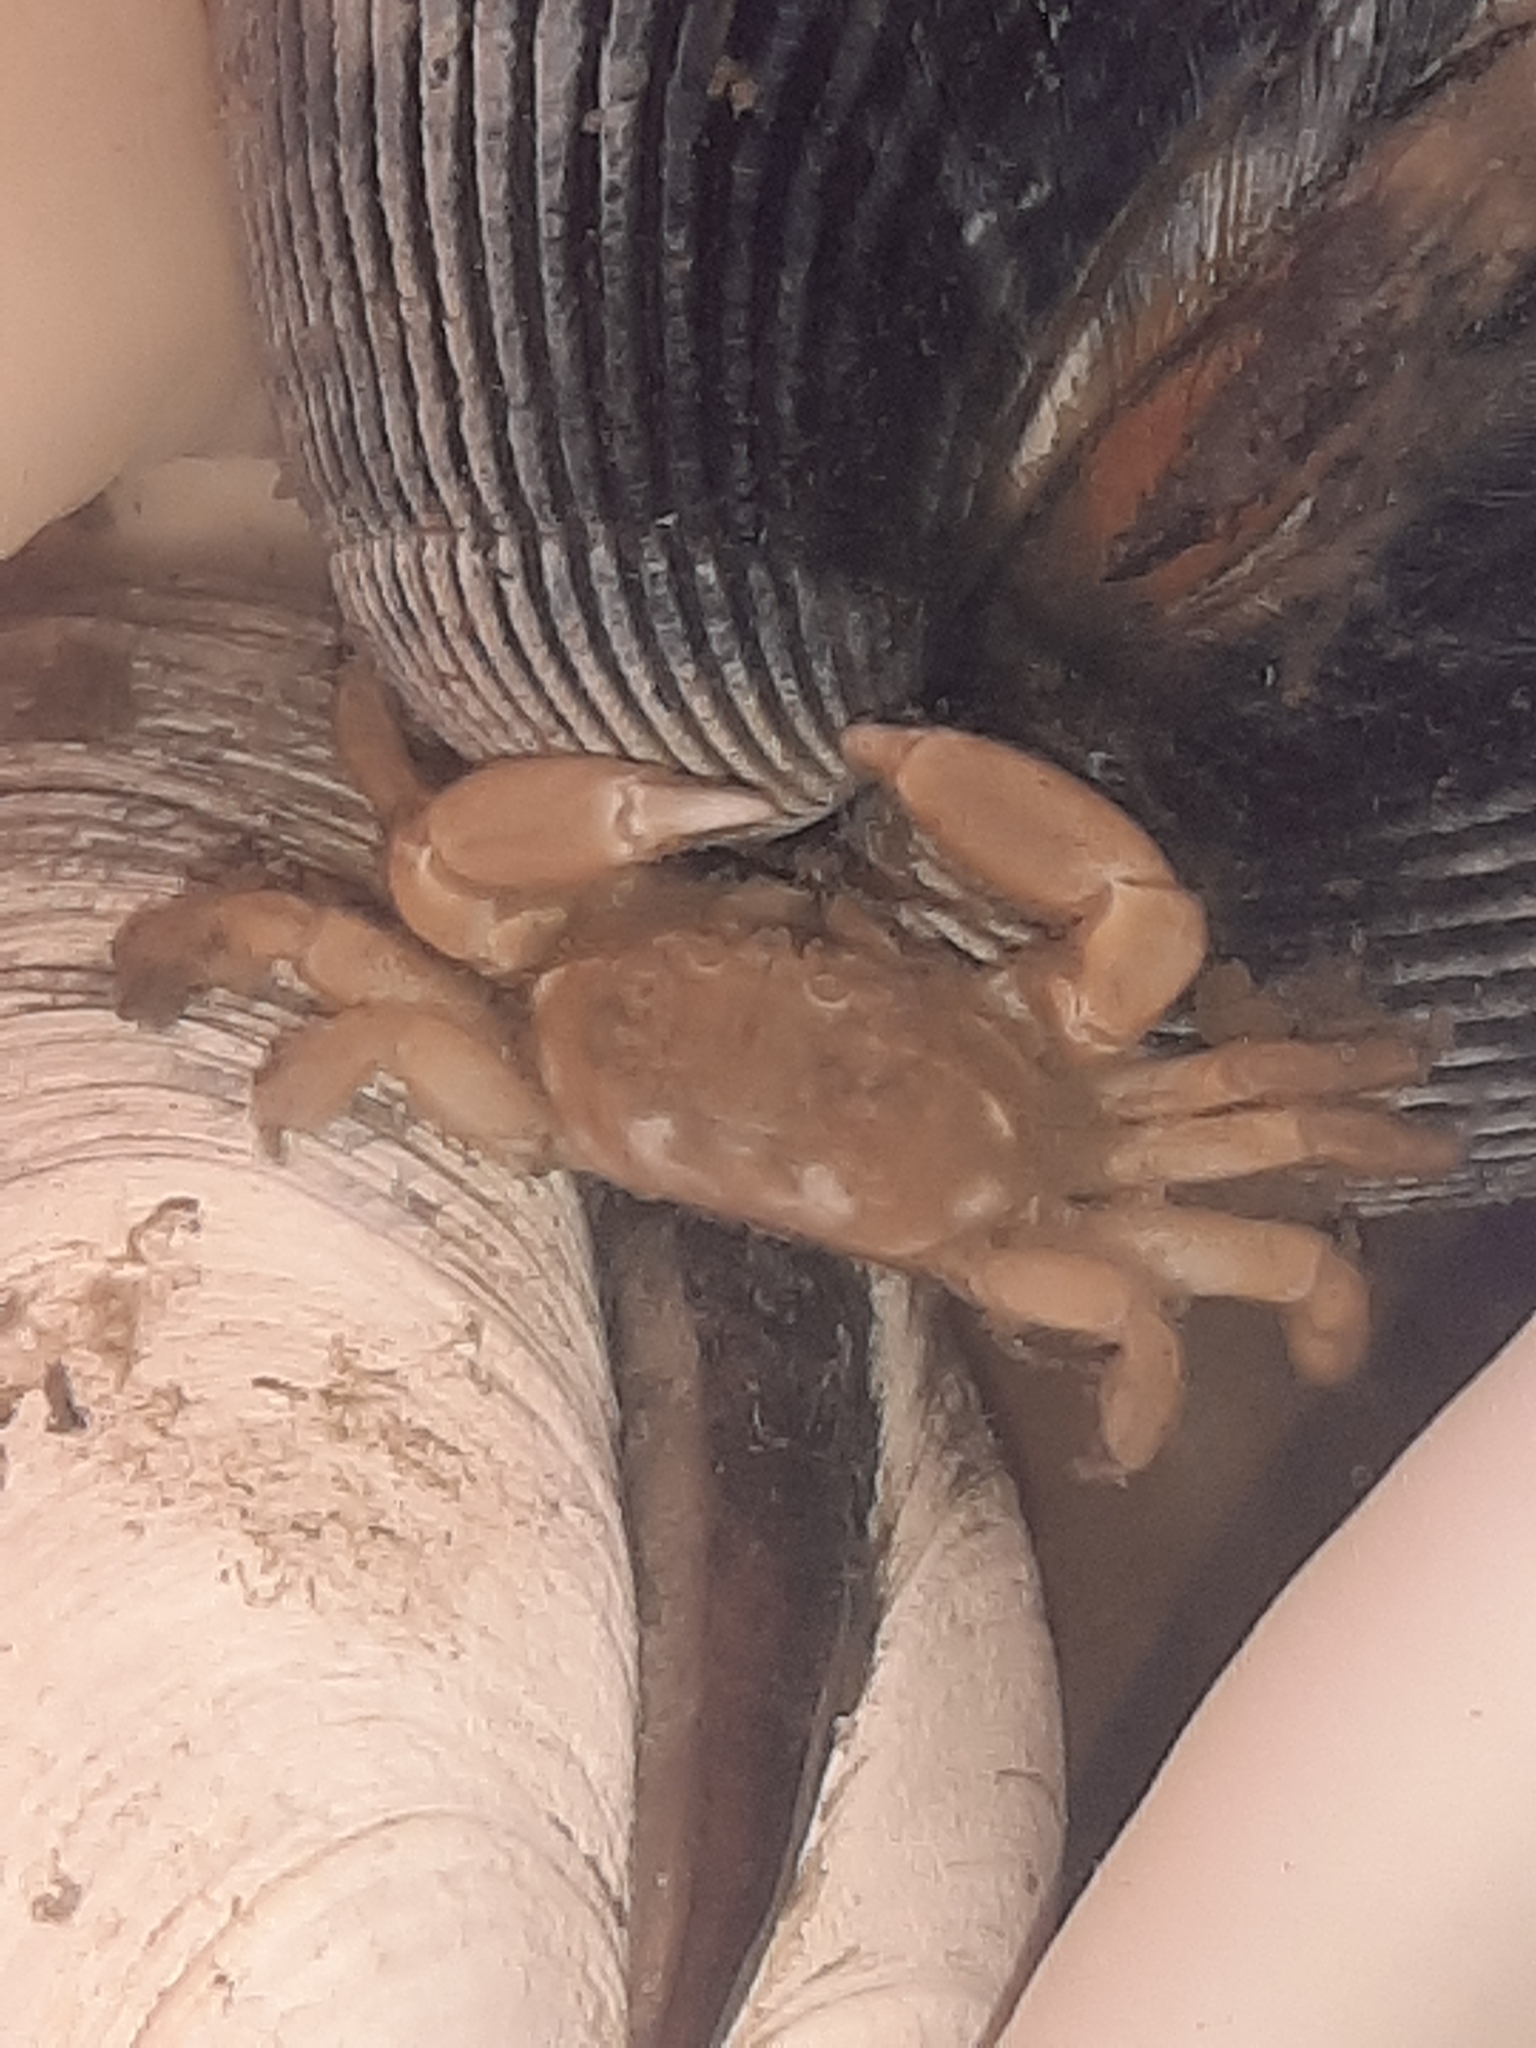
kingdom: Animalia
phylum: Arthropoda
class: Malacostraca
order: Decapoda
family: Pinnotheridae
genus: Scleroplax
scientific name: Scleroplax faba
